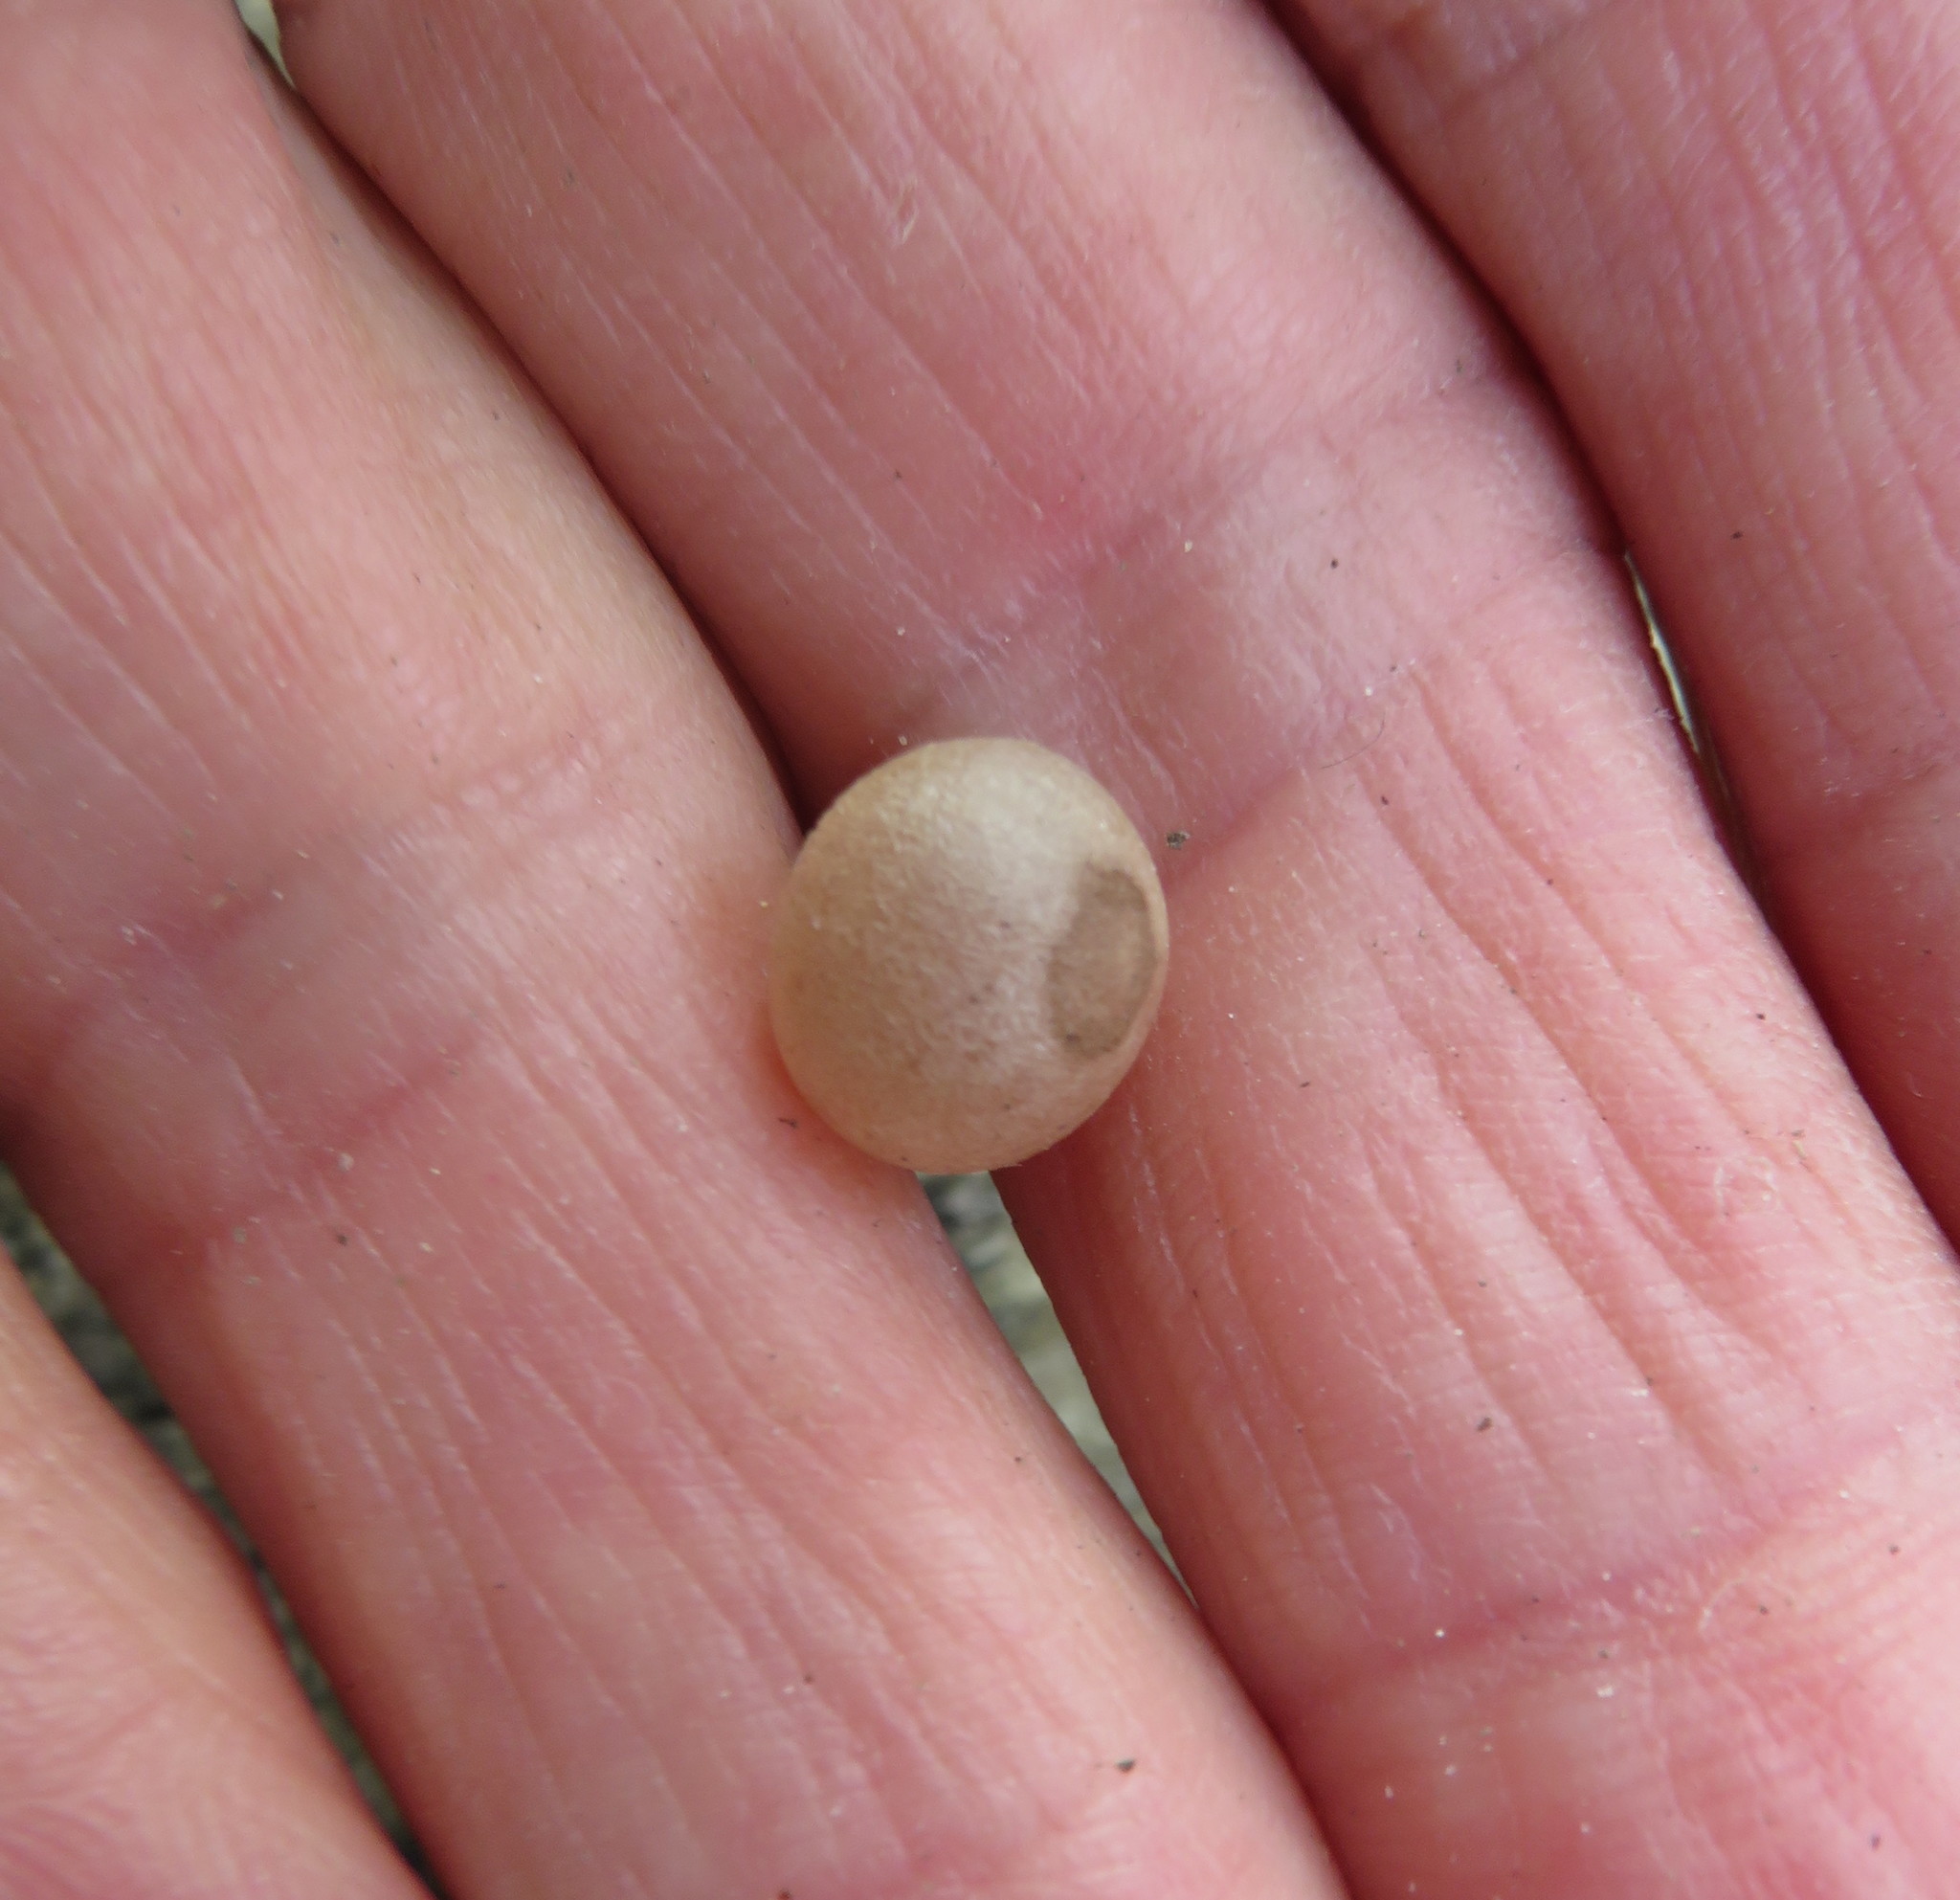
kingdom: Plantae
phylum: Tracheophyta
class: Liliopsida
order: Asparagales
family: Asparagaceae
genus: Dracaena
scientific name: Dracaena draco
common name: Canary island dragon tree
